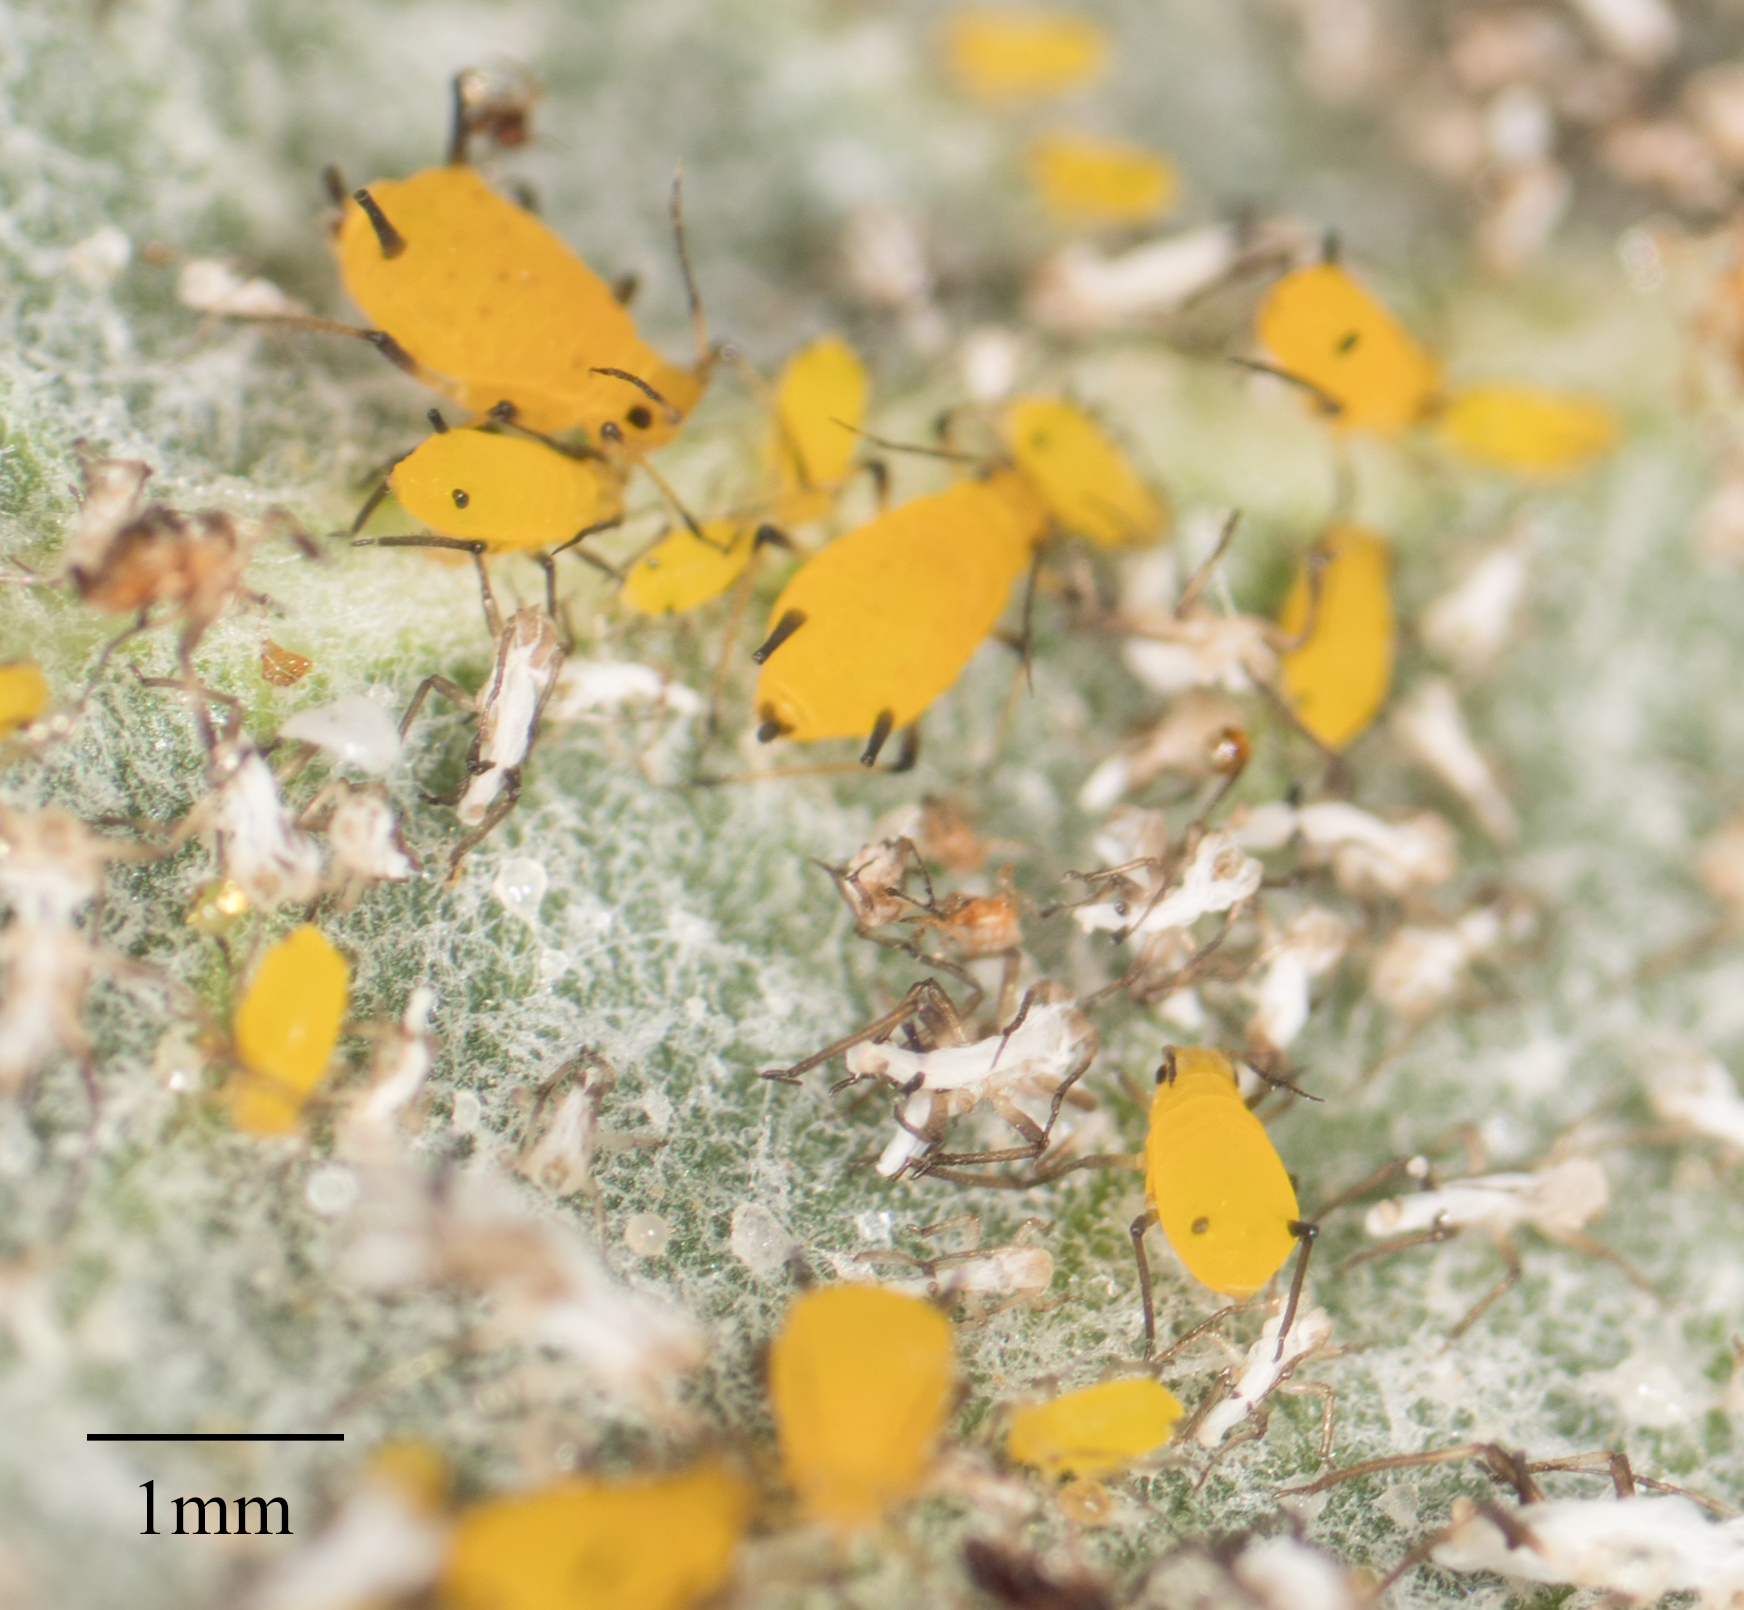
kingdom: Animalia
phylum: Arthropoda
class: Insecta
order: Hemiptera
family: Aphididae
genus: Aphis
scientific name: Aphis nerii
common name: Oleander aphid
